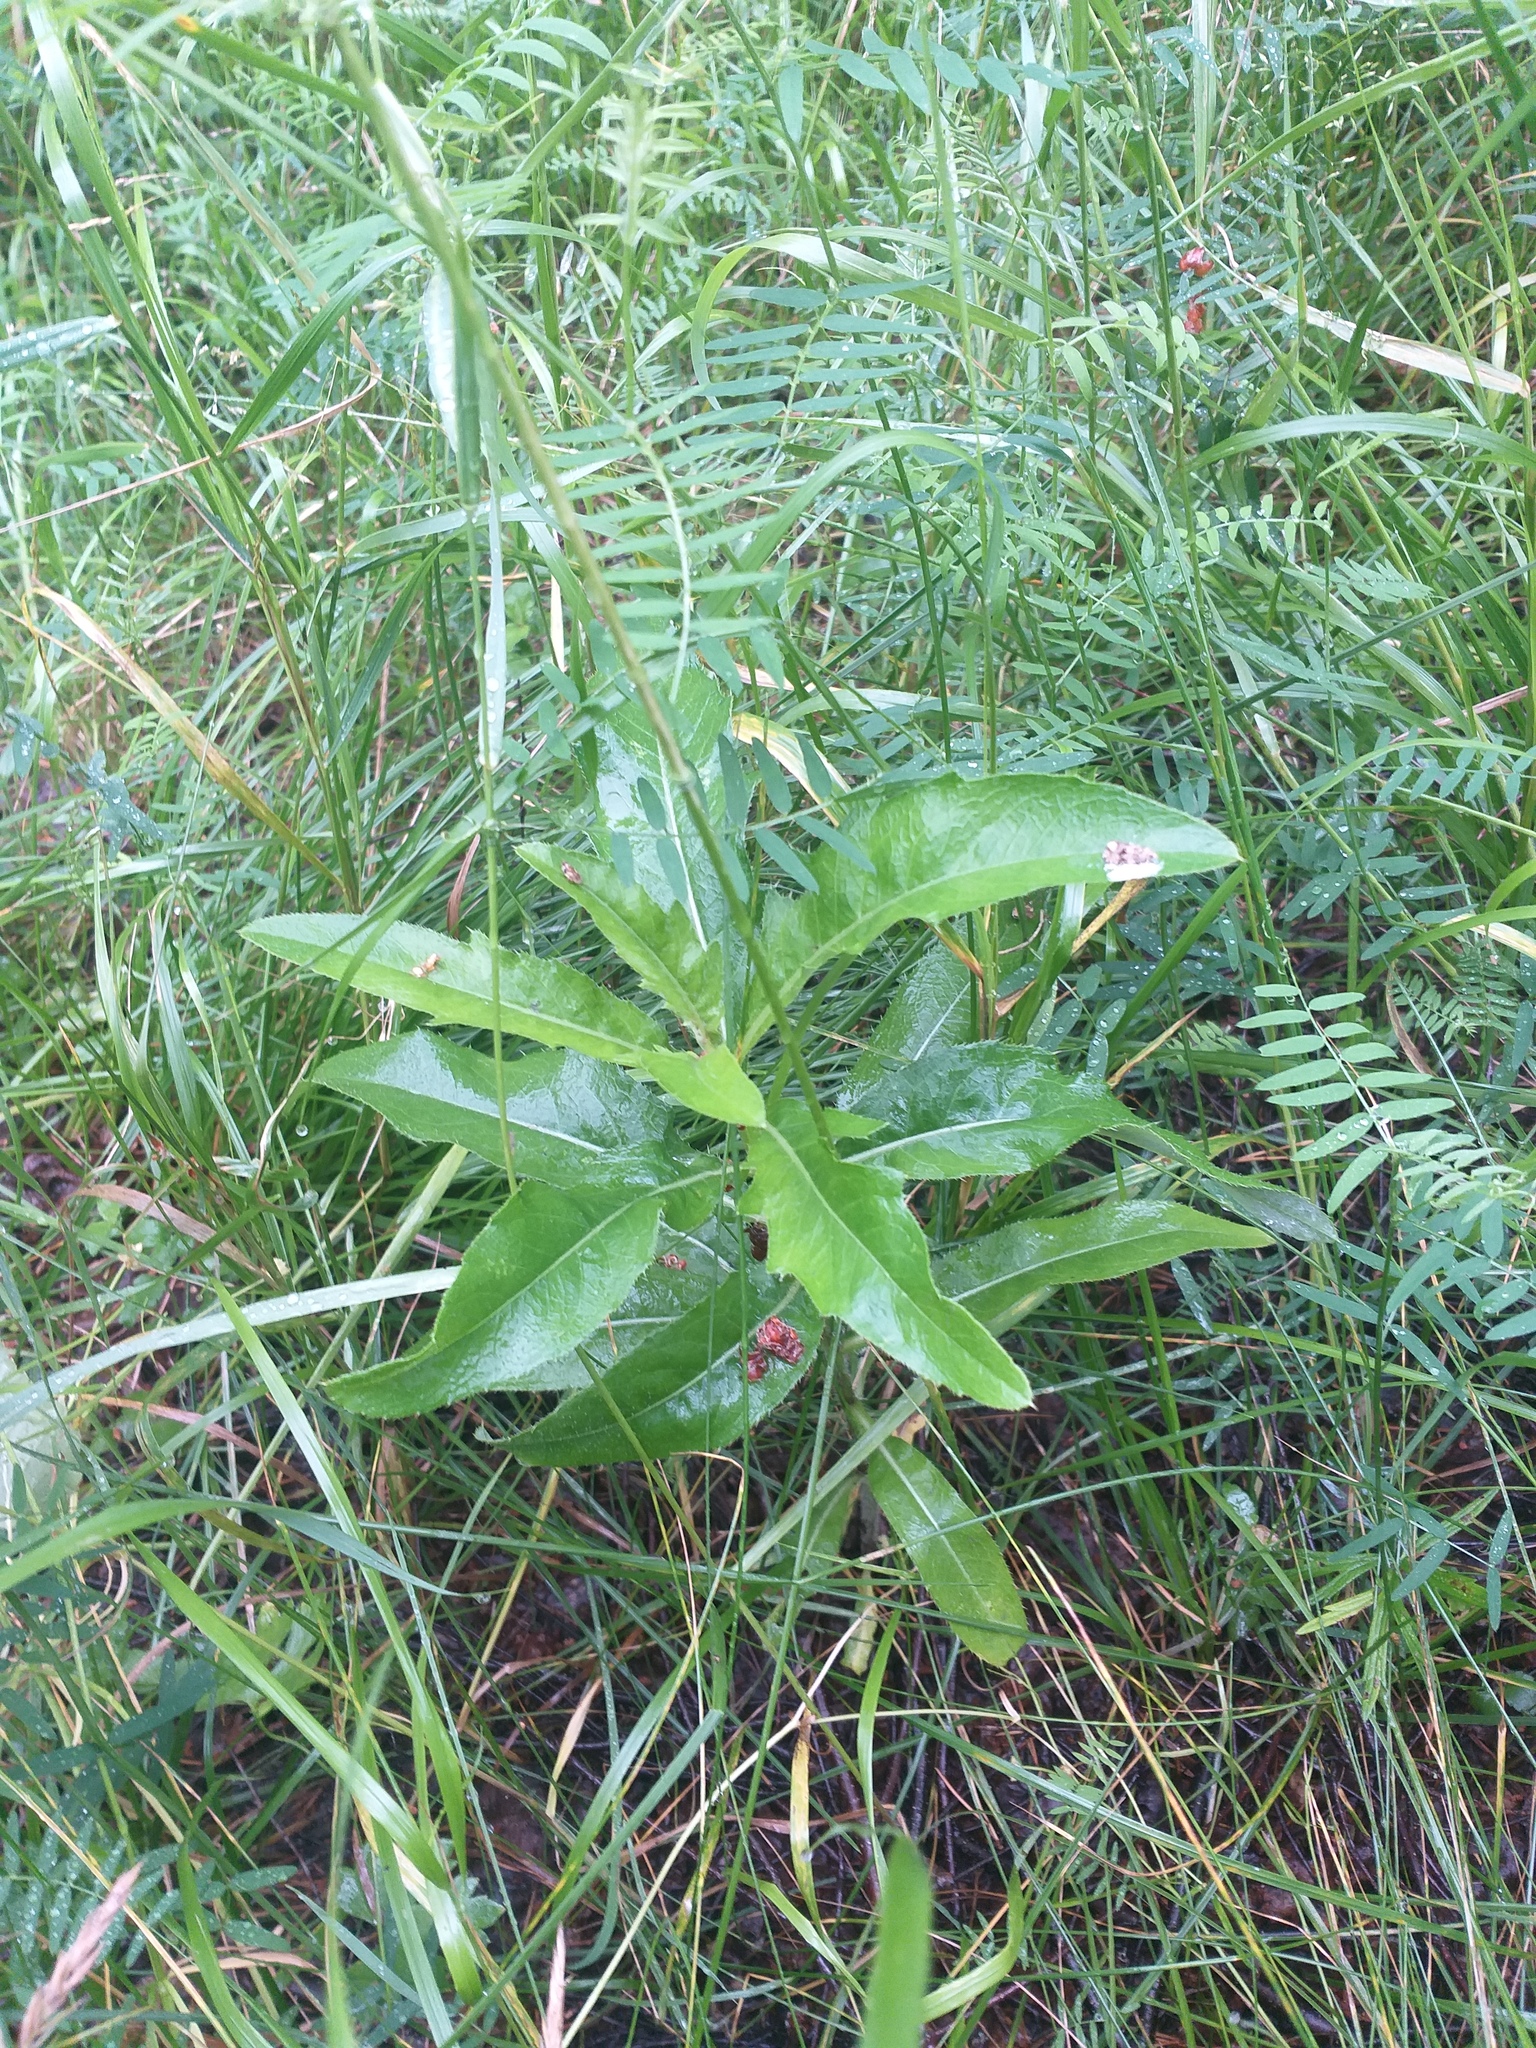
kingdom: Plantae
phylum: Tracheophyta
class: Magnoliopsida
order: Asterales
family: Asteraceae
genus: Cirsium
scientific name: Cirsium arvense
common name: Creeping thistle
